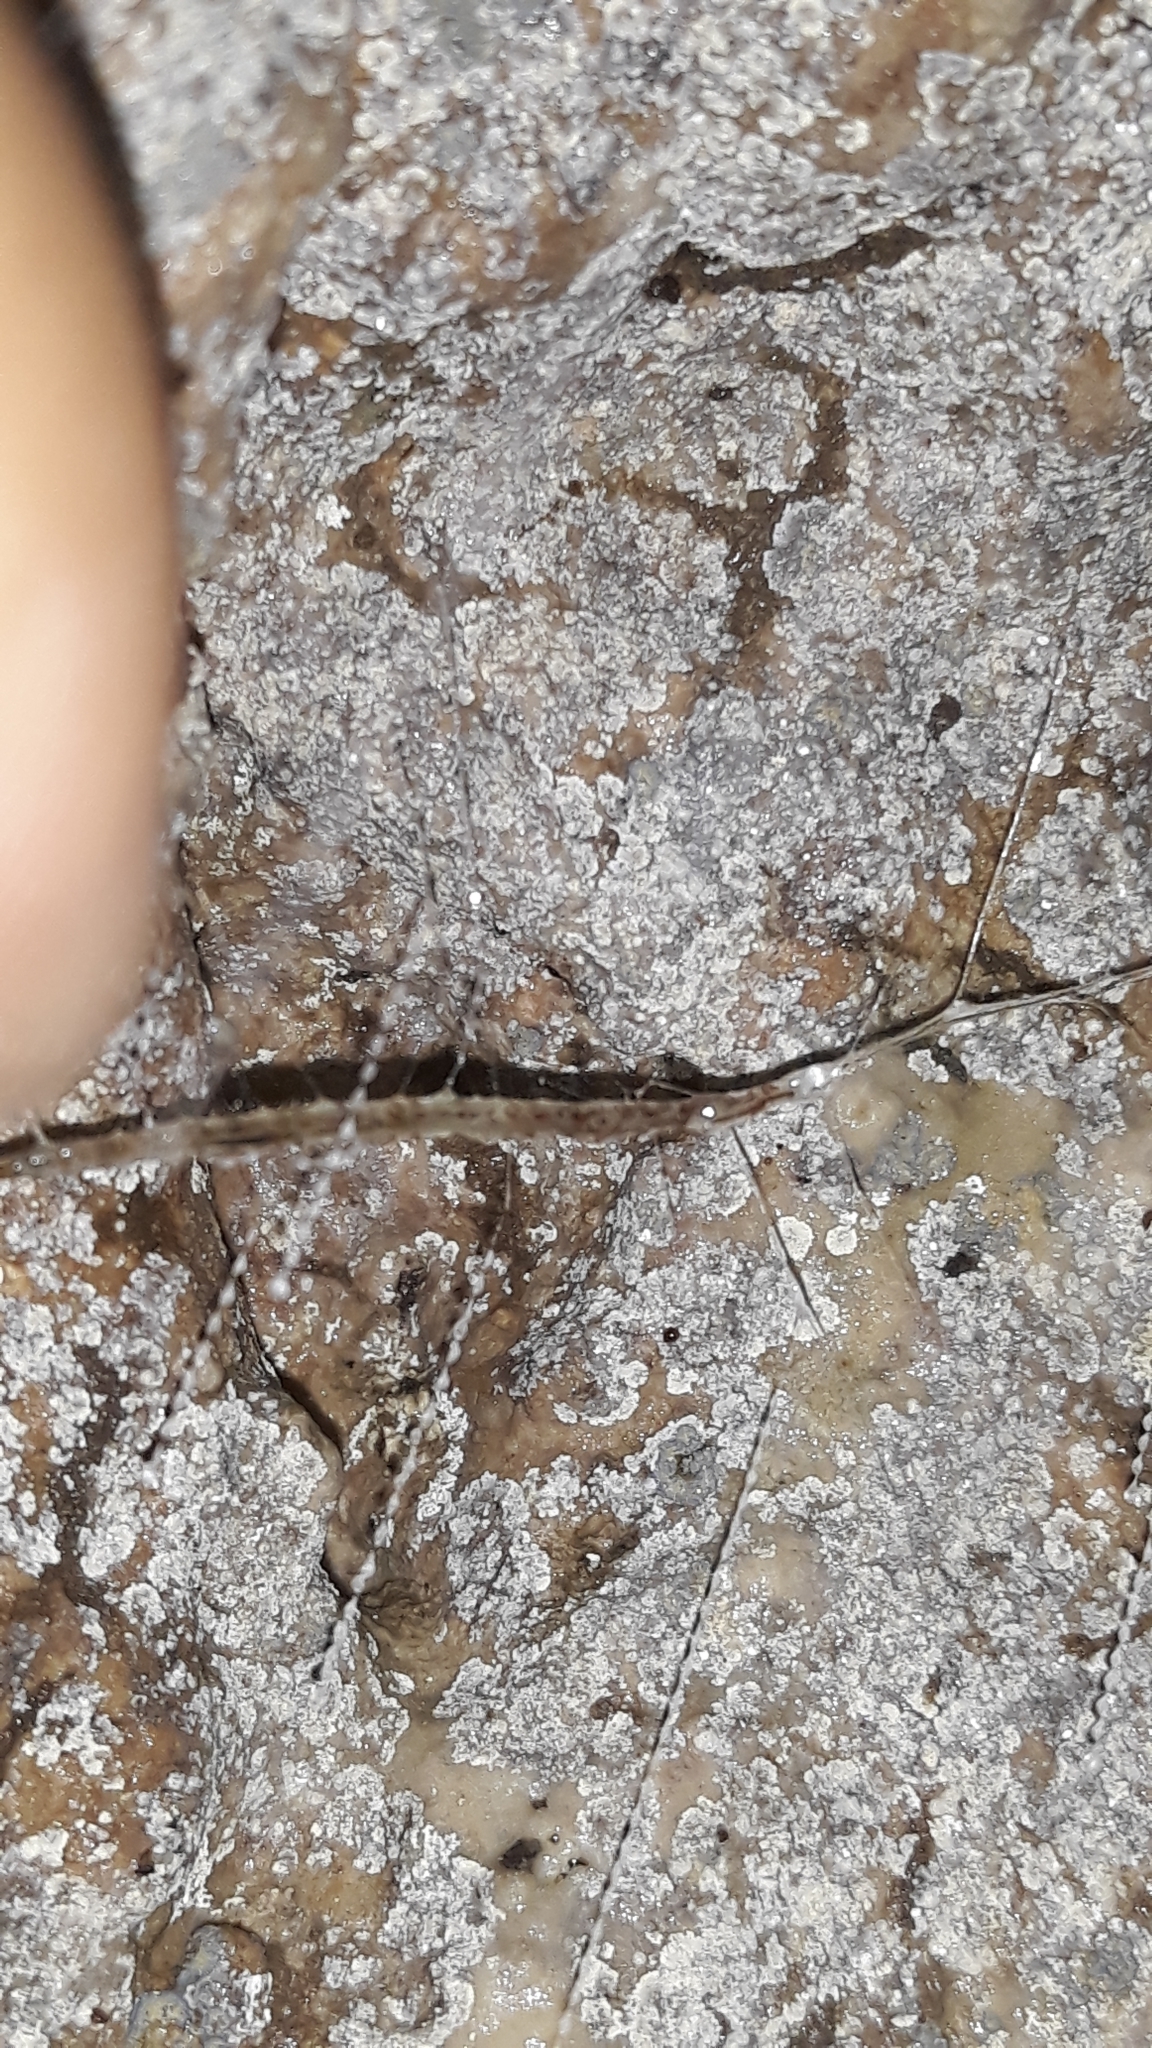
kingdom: Animalia
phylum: Arthropoda
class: Insecta
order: Diptera
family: Keroplatidae
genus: Arachnocampa
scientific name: Arachnocampa luminosa
